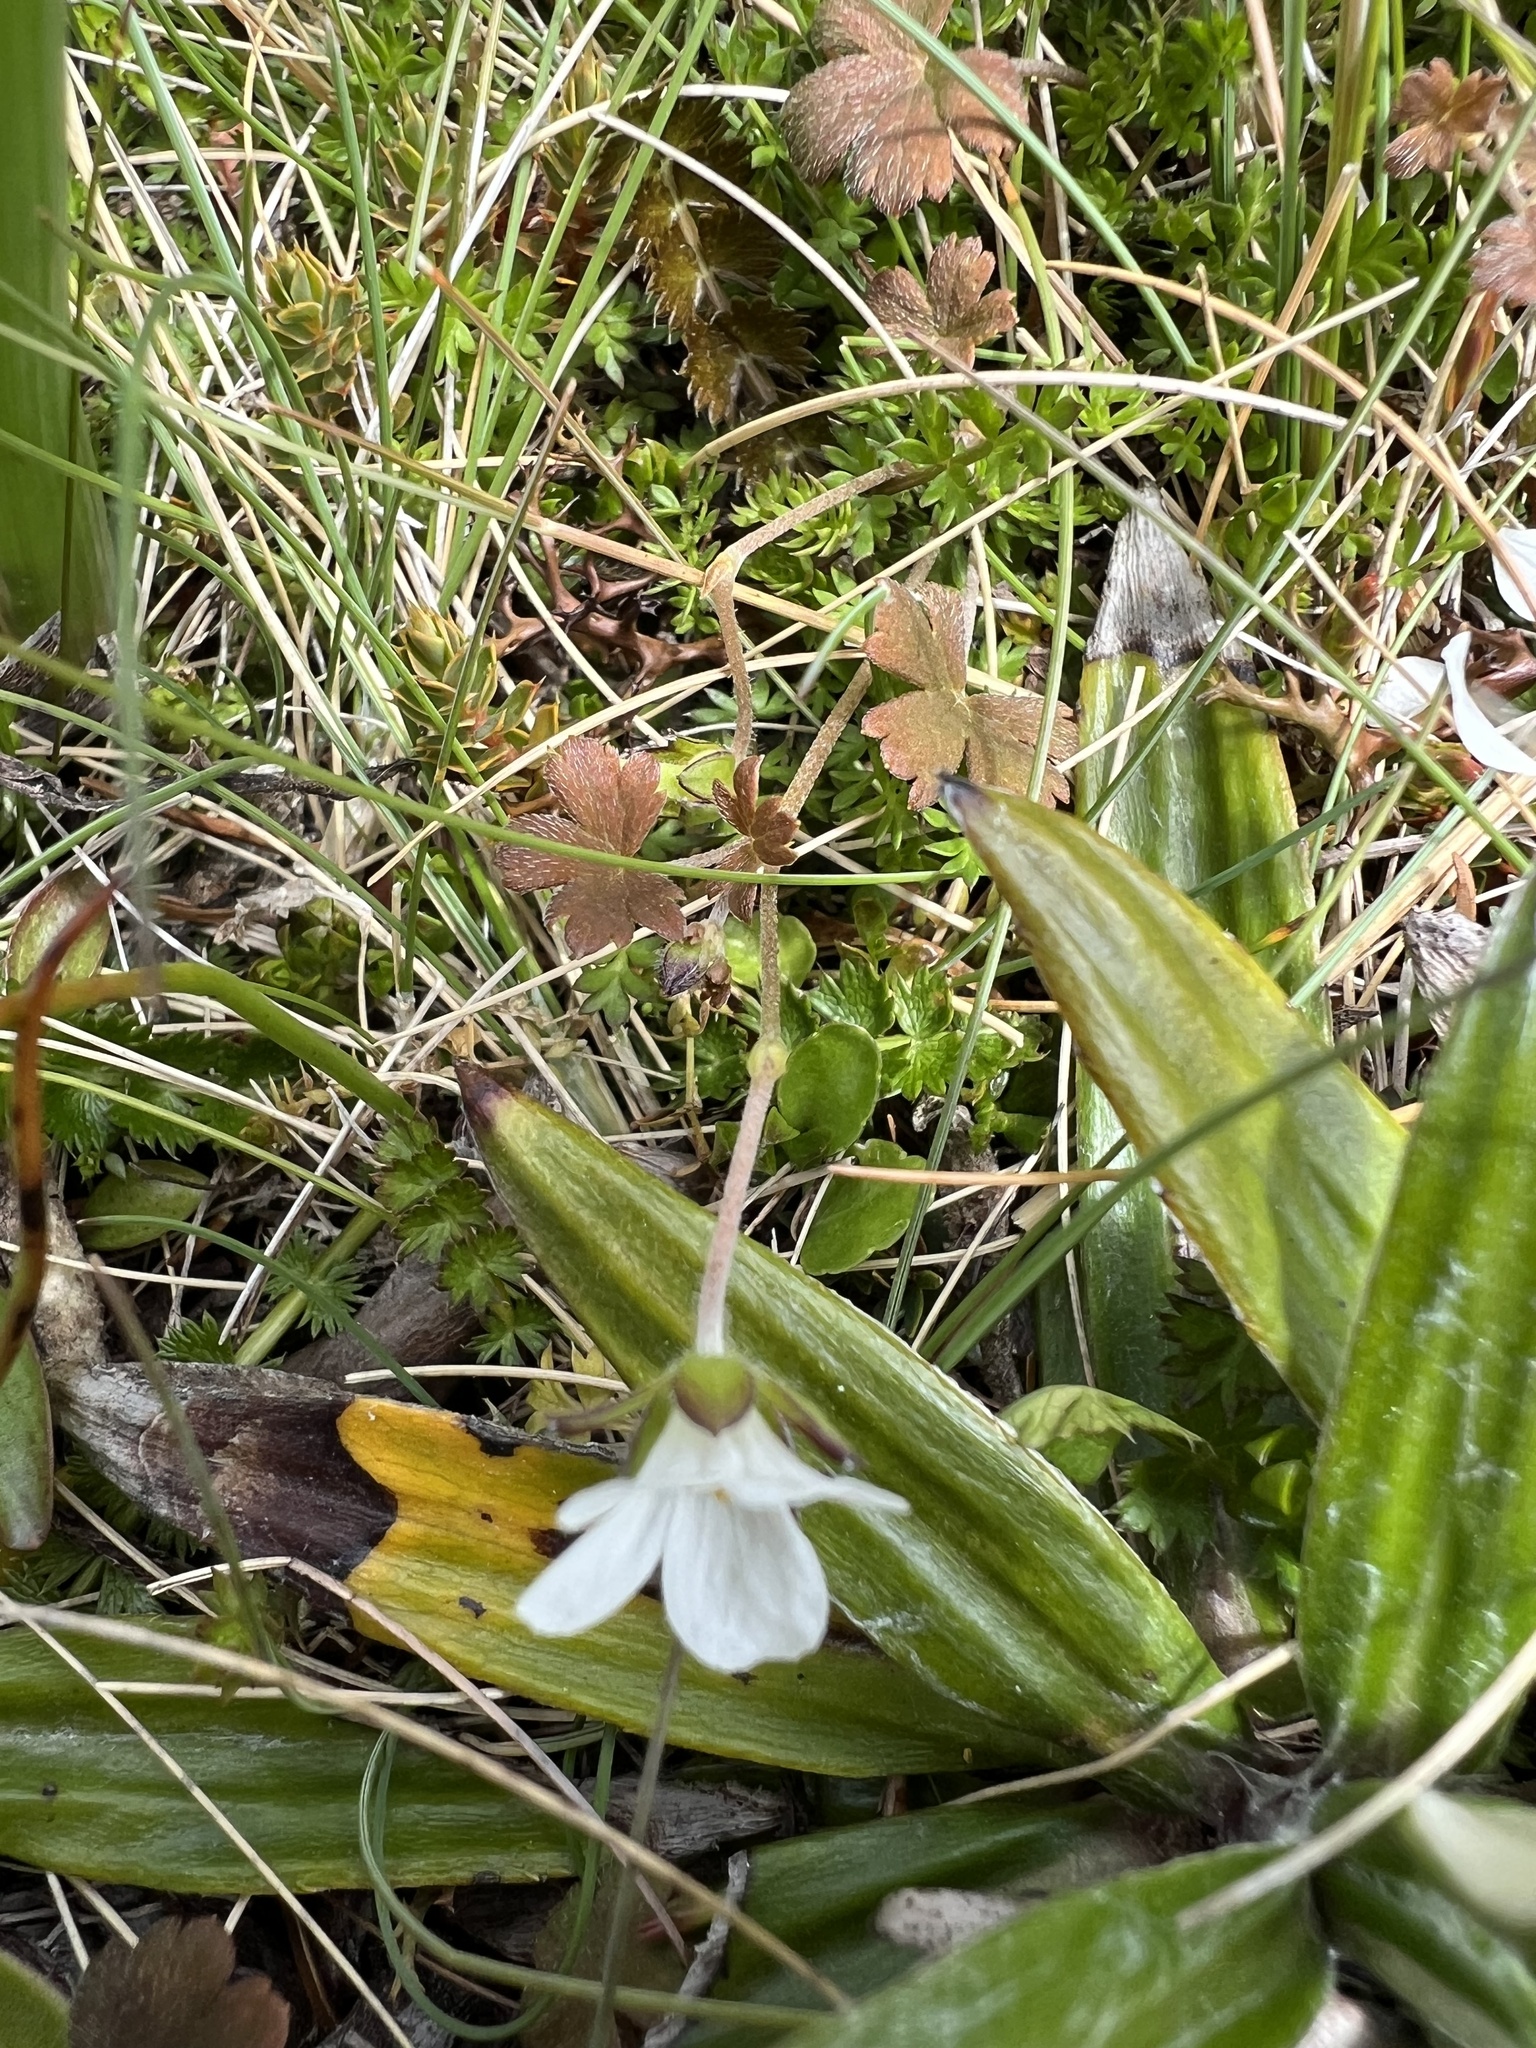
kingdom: Plantae
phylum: Tracheophyta
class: Magnoliopsida
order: Geraniales
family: Geraniaceae
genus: Geranium
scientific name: Geranium brevicaule
